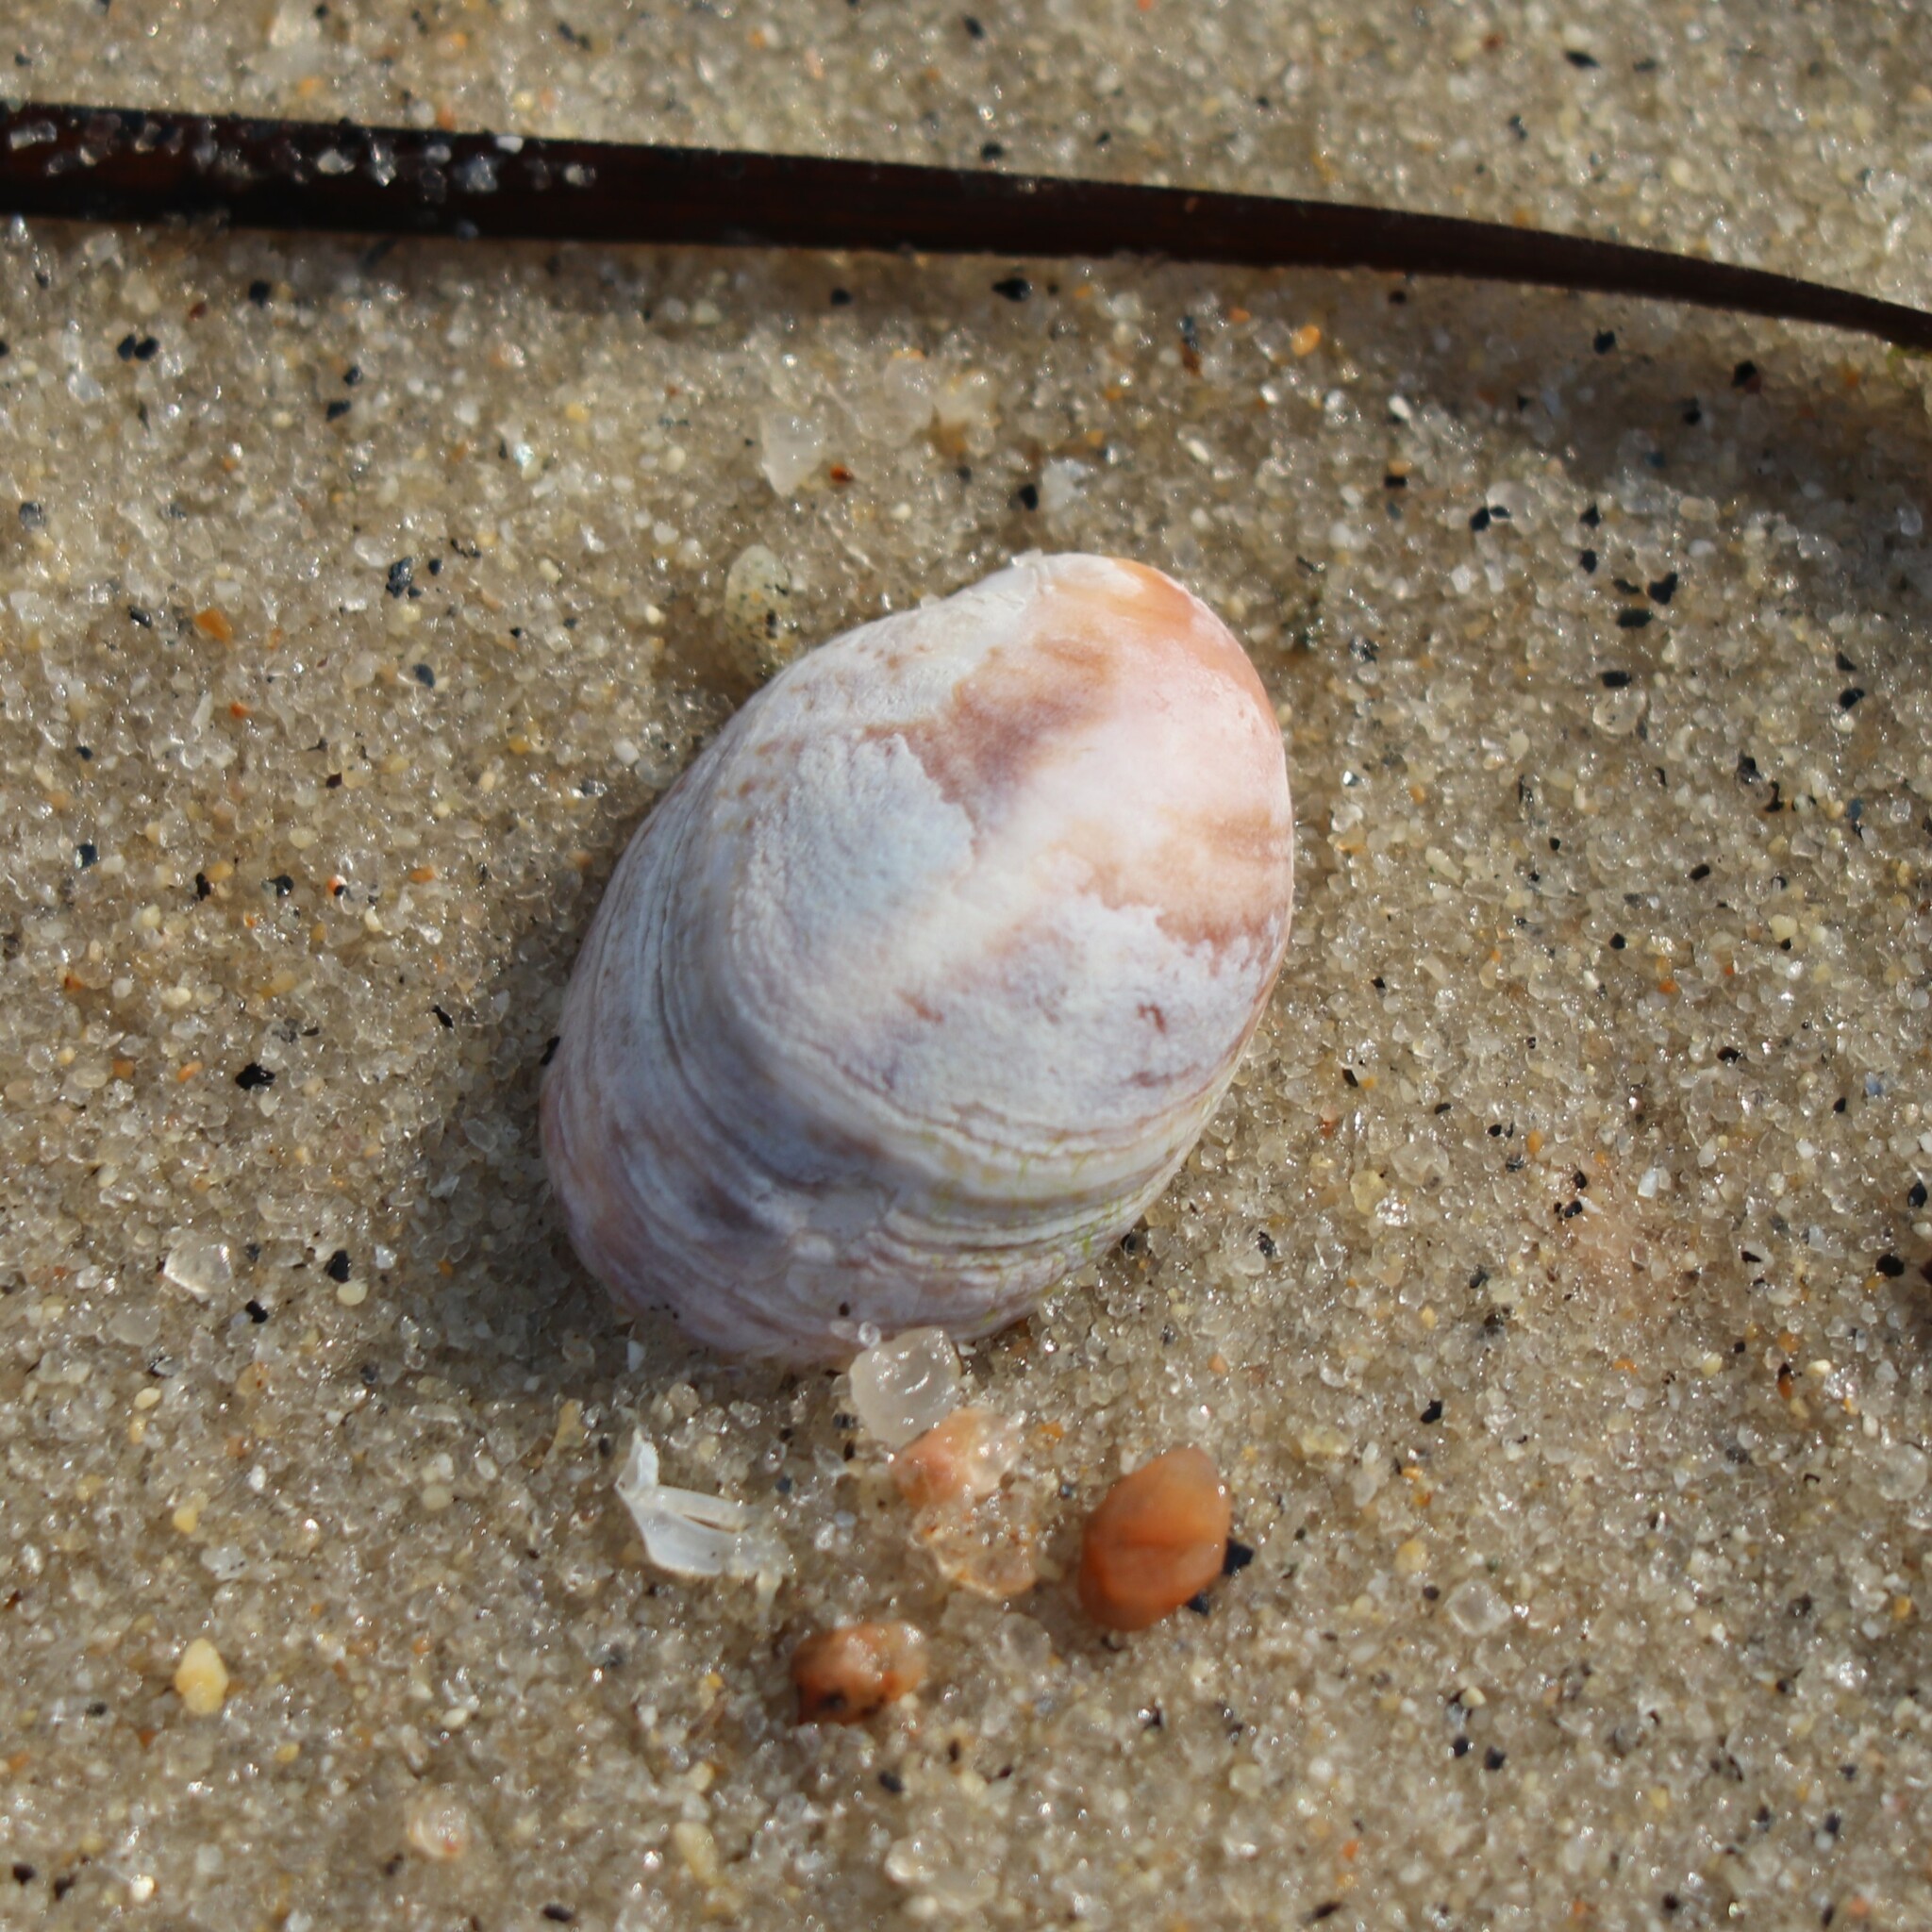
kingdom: Animalia
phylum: Mollusca
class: Gastropoda
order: Littorinimorpha
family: Calyptraeidae
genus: Crepidula
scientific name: Crepidula fornicata
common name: Slipper limpet
